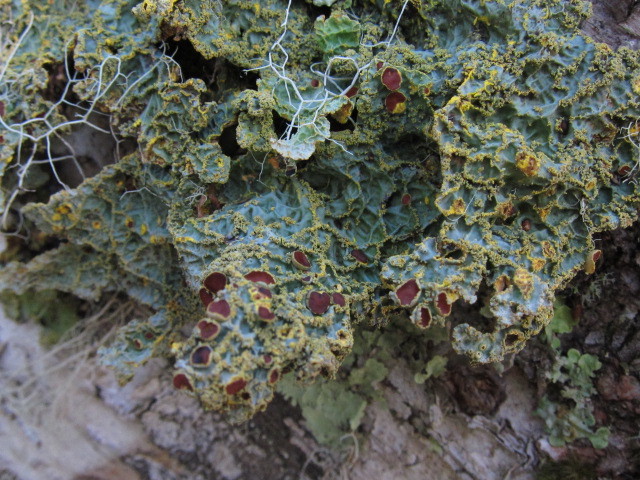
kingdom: Fungi
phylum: Ascomycota
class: Lecanoromycetes
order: Peltigerales
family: Lobariaceae
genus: Yarrumia
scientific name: Yarrumia colensoi
